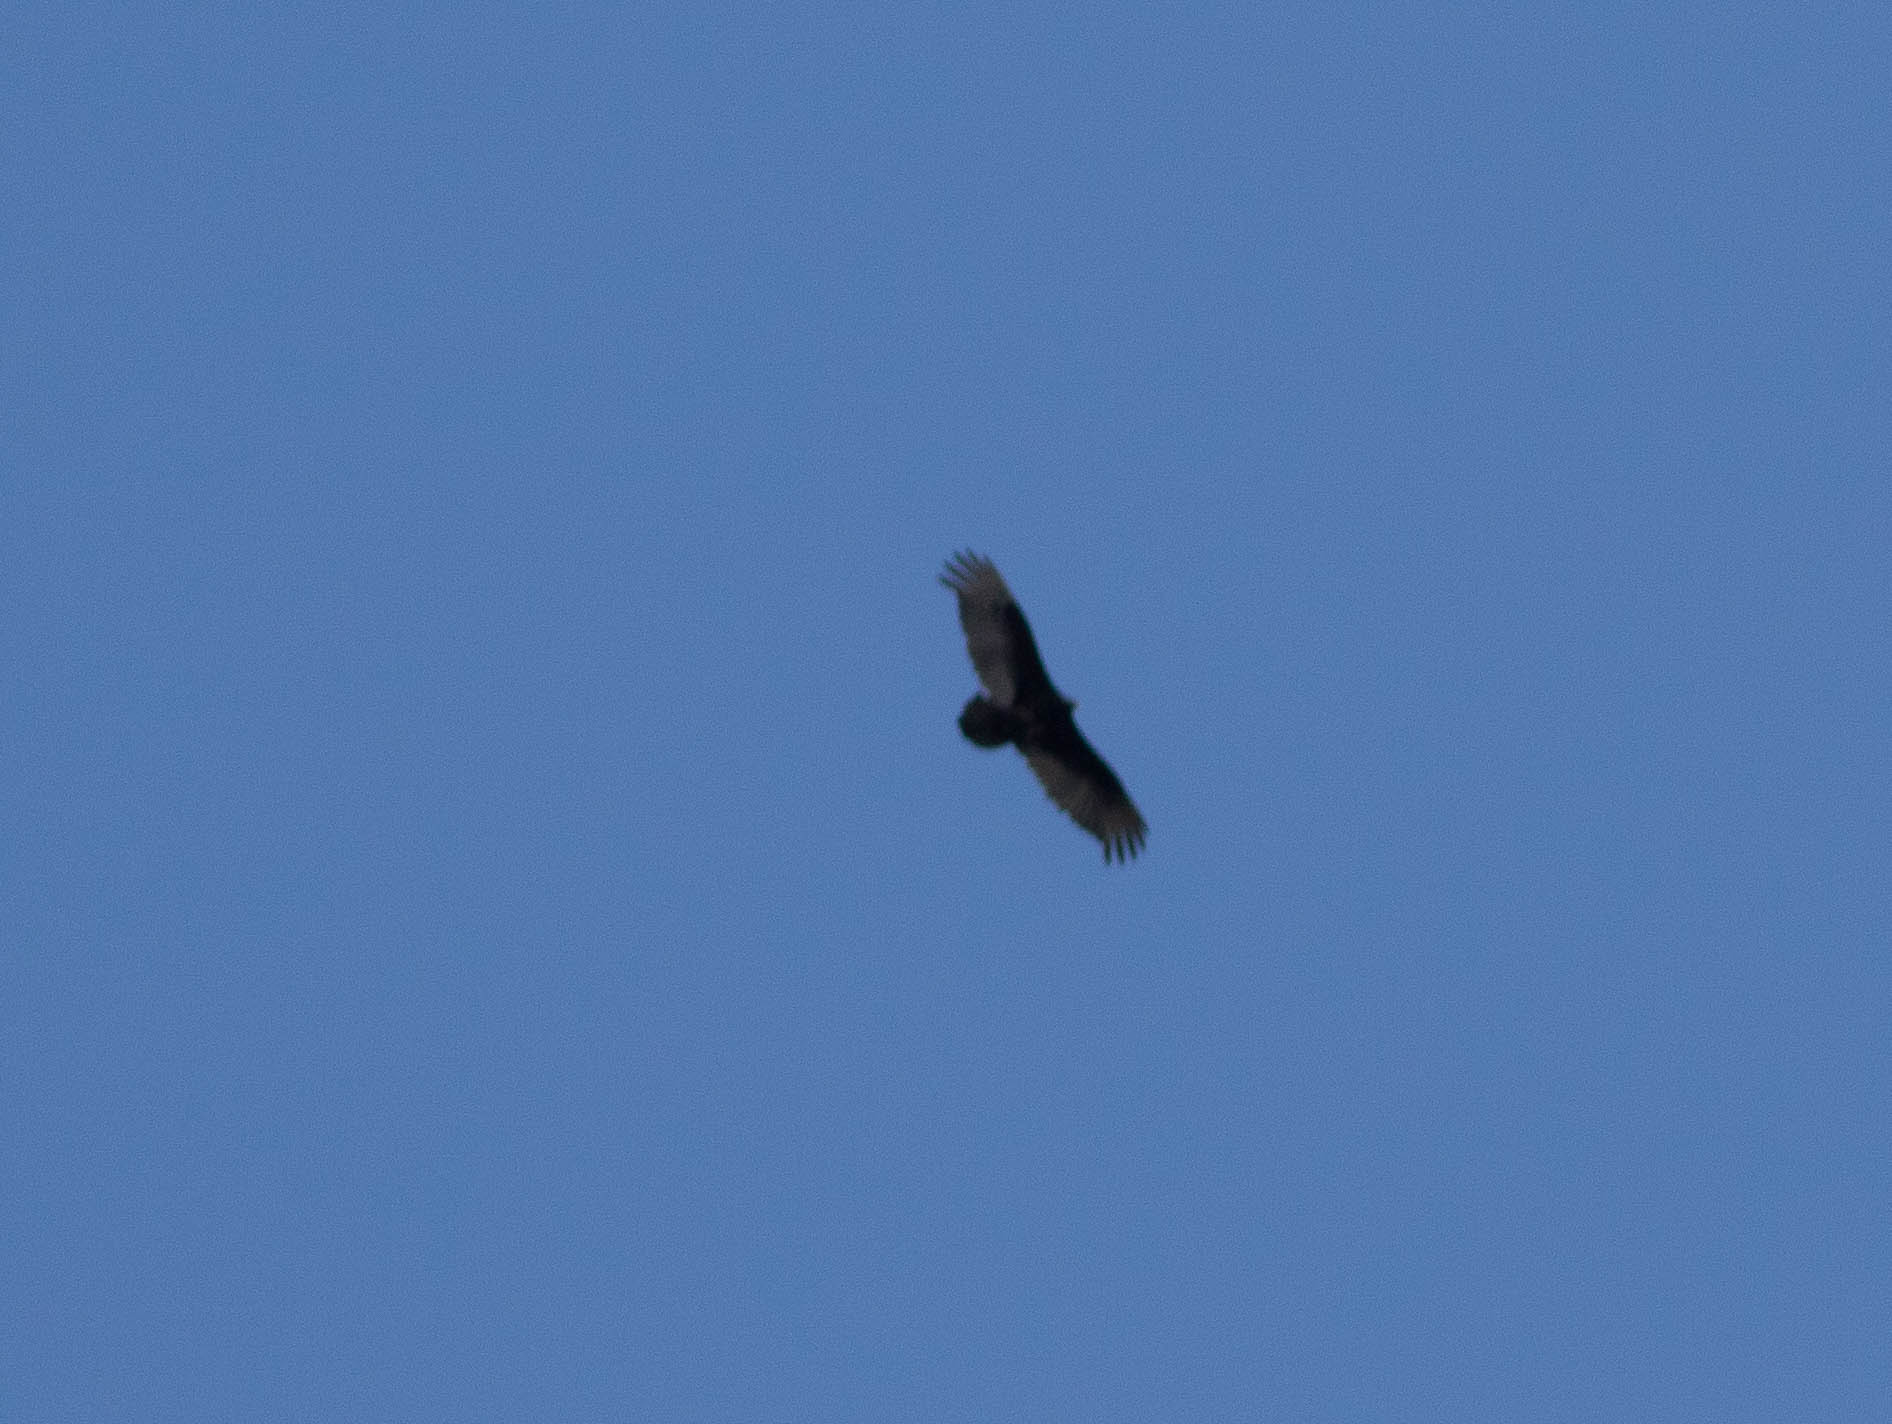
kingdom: Animalia
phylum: Chordata
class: Aves
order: Accipitriformes
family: Cathartidae
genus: Cathartes
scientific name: Cathartes aura
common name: Turkey vulture
